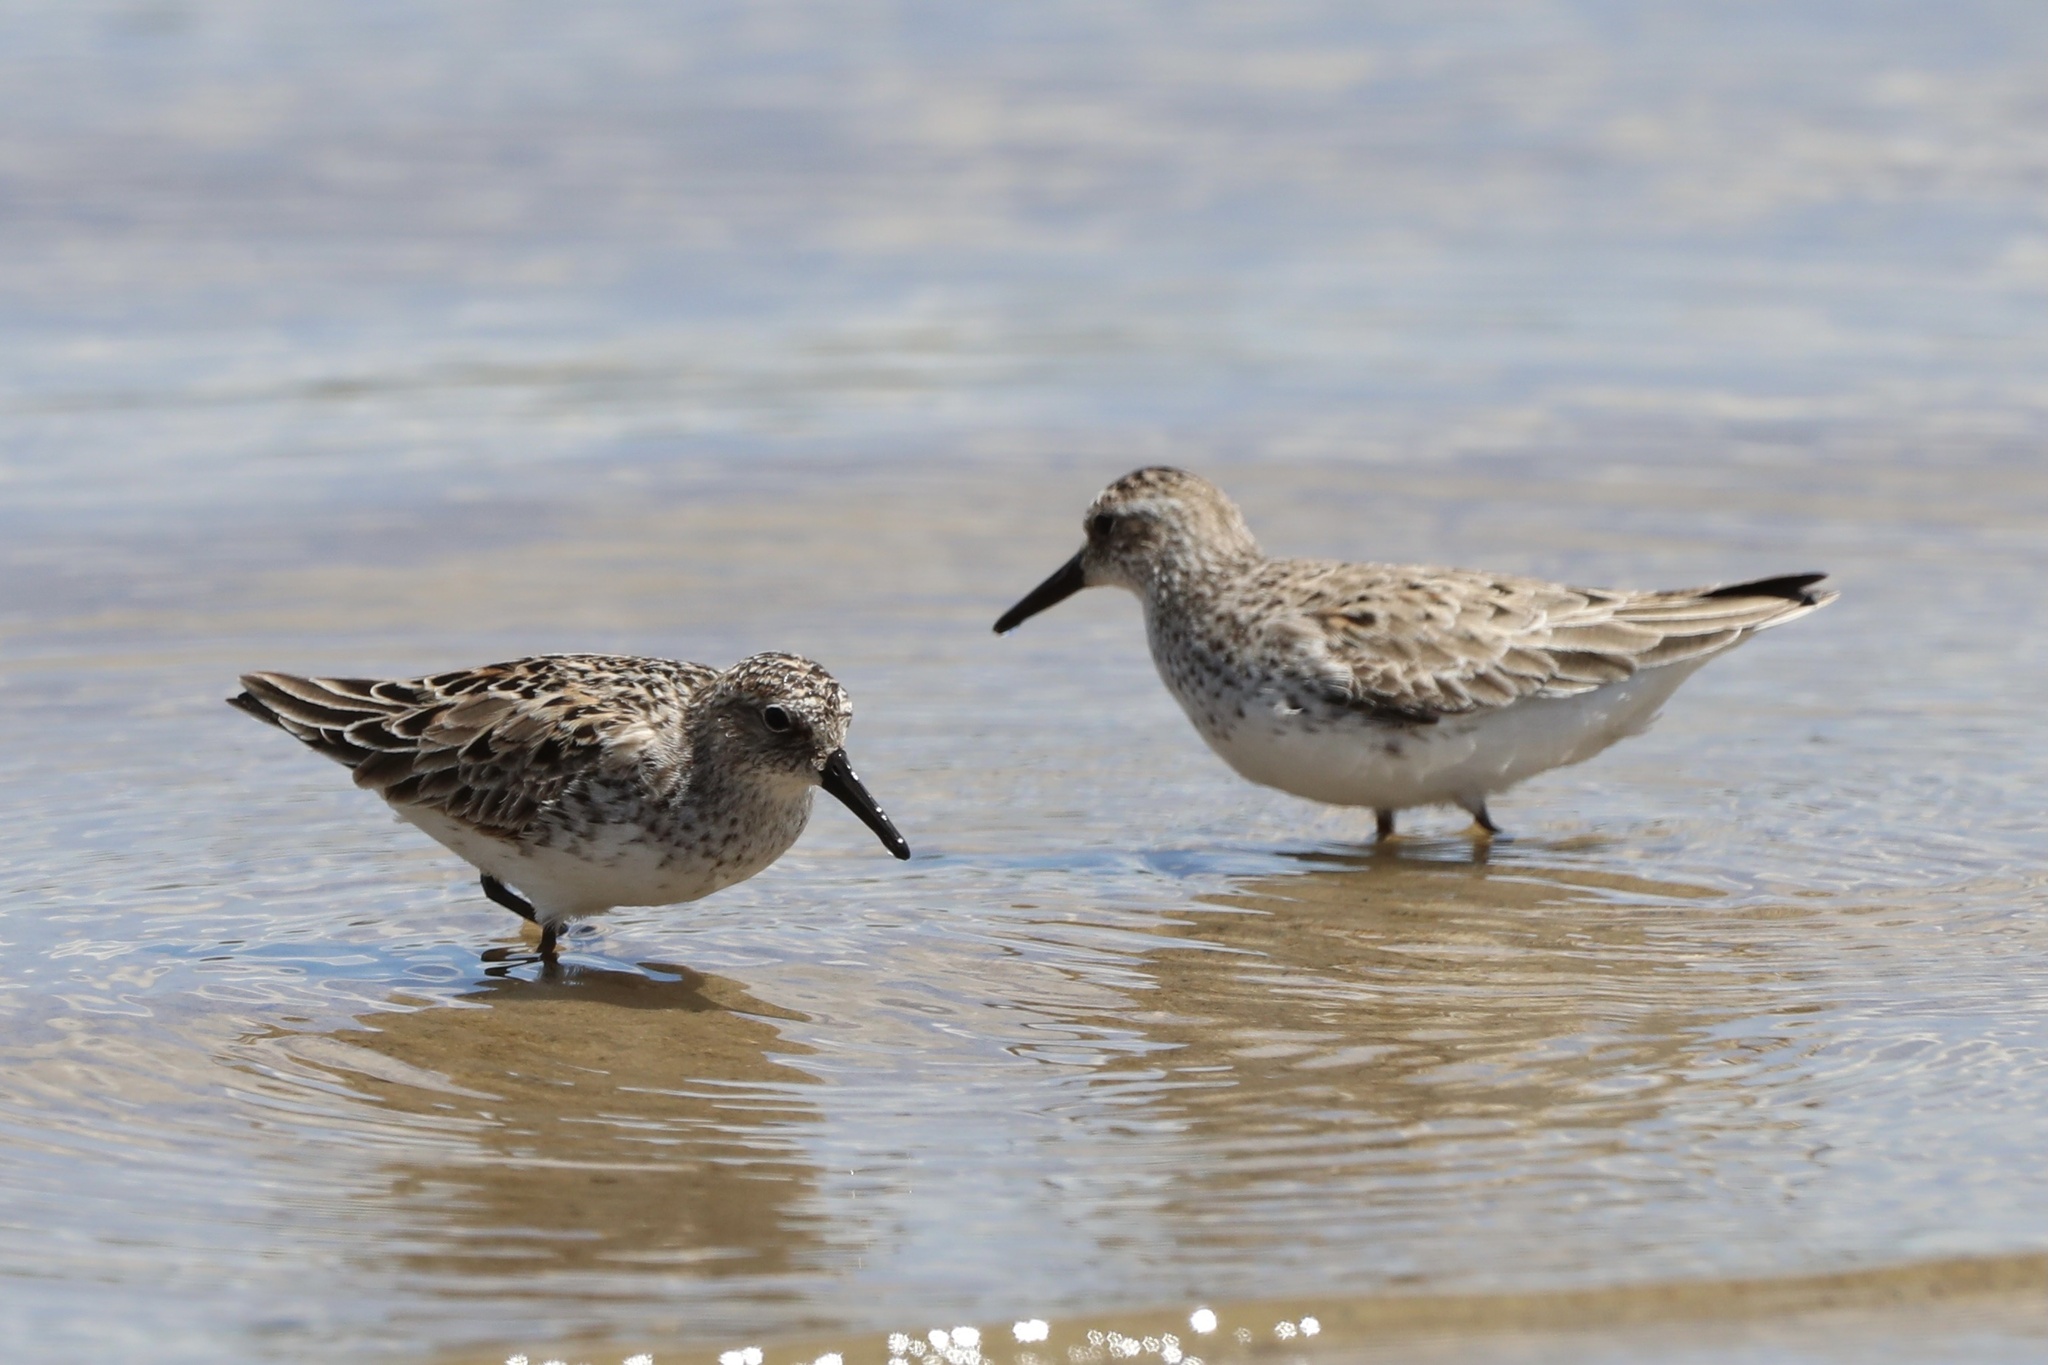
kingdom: Animalia
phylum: Chordata
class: Aves
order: Charadriiformes
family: Scolopacidae
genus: Calidris
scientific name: Calidris pusilla
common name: Semipalmated sandpiper
